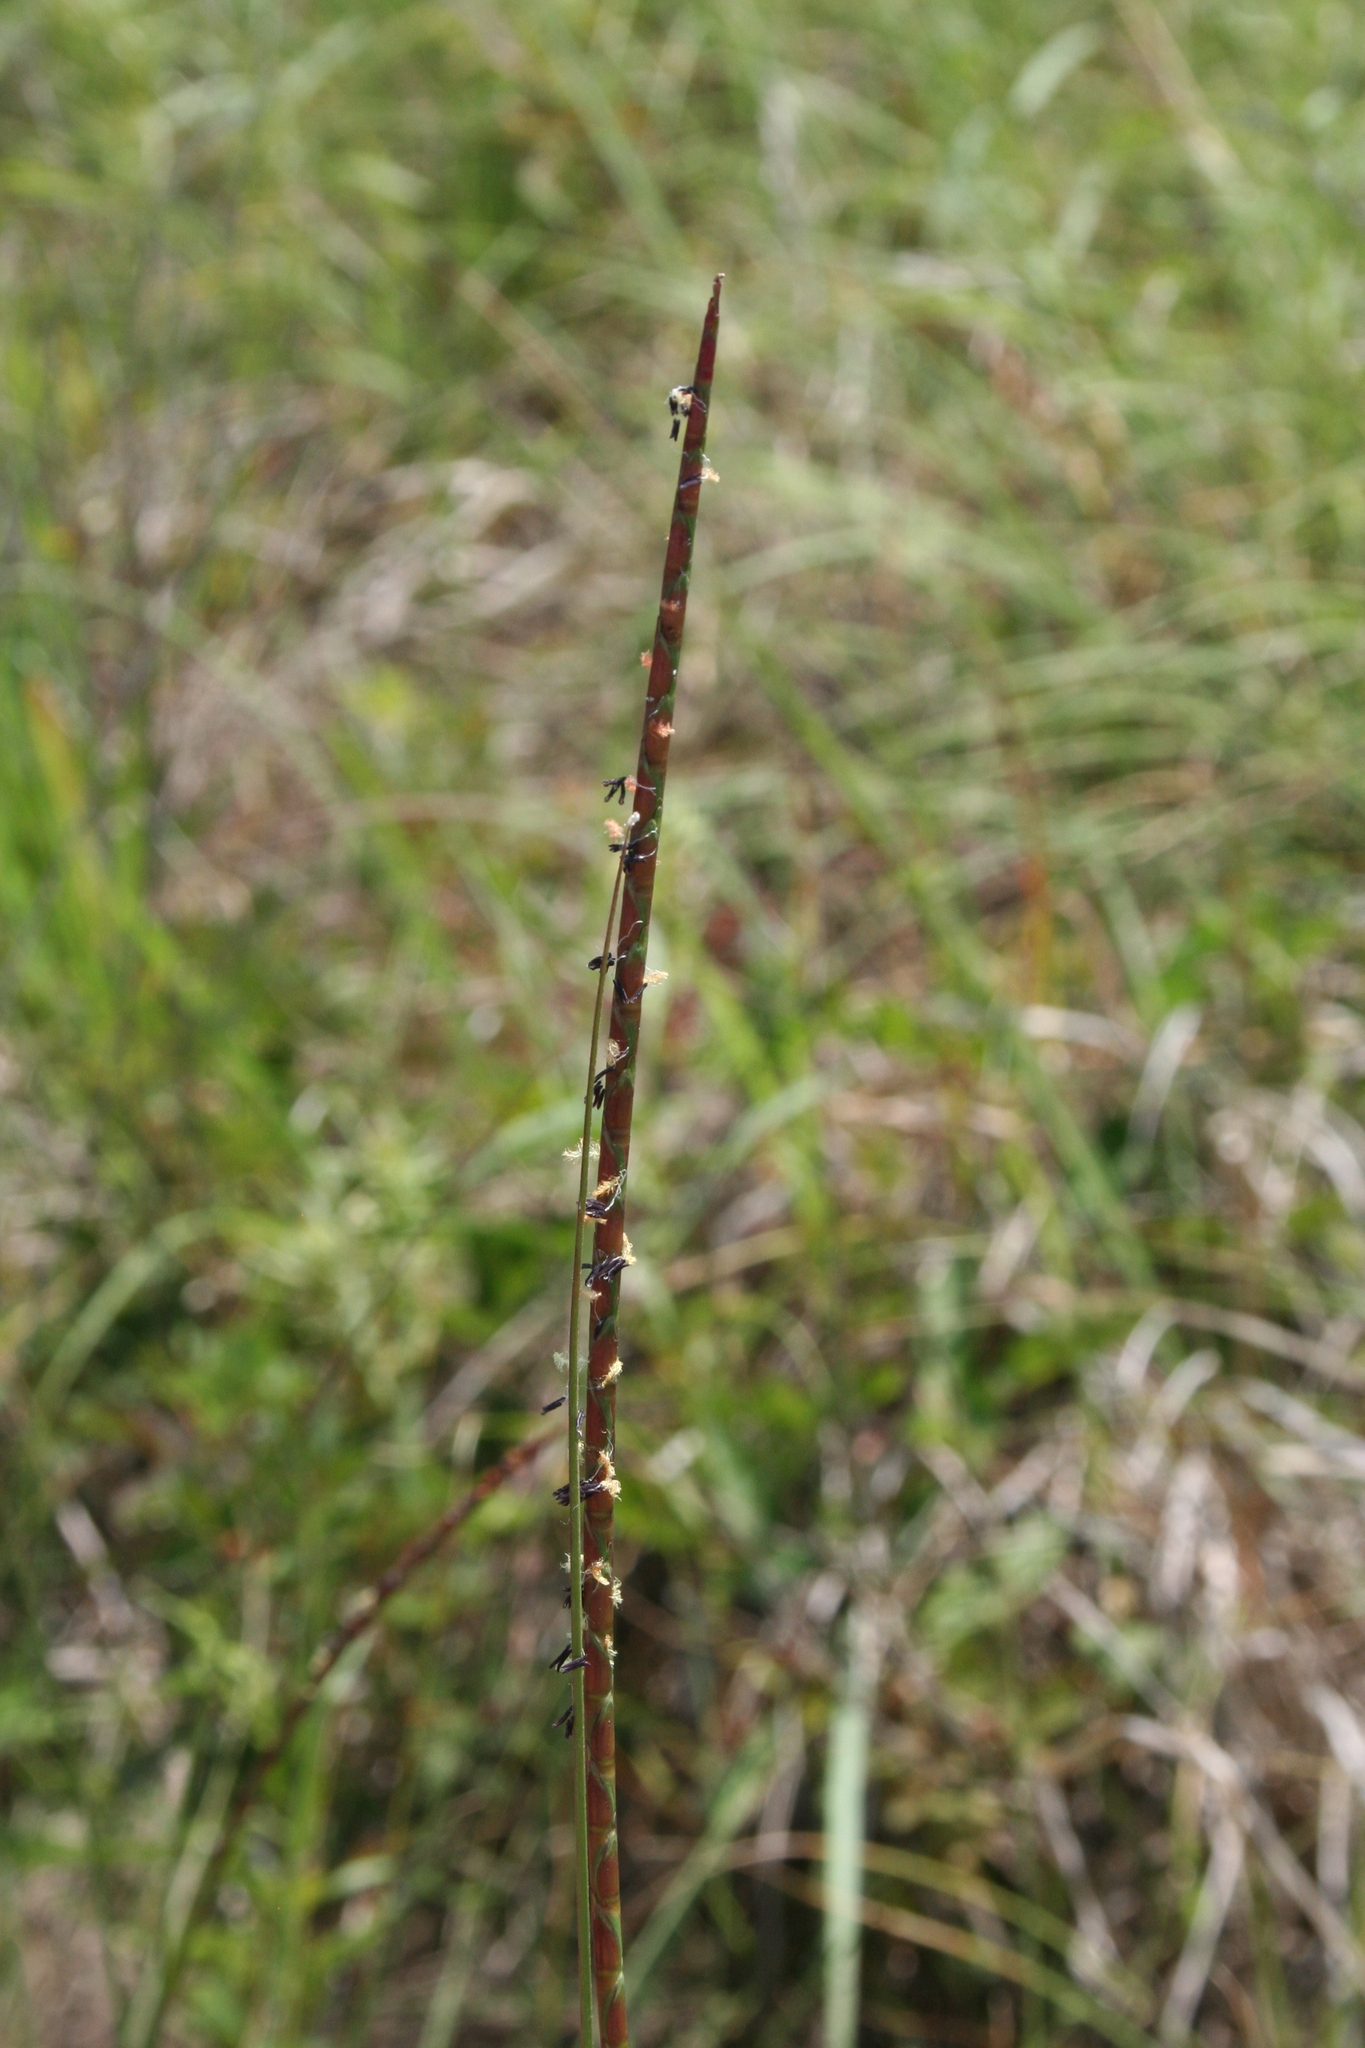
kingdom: Plantae
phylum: Tracheophyta
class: Liliopsida
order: Poales
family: Poaceae
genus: Rottboellia
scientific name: Rottboellia campestris
